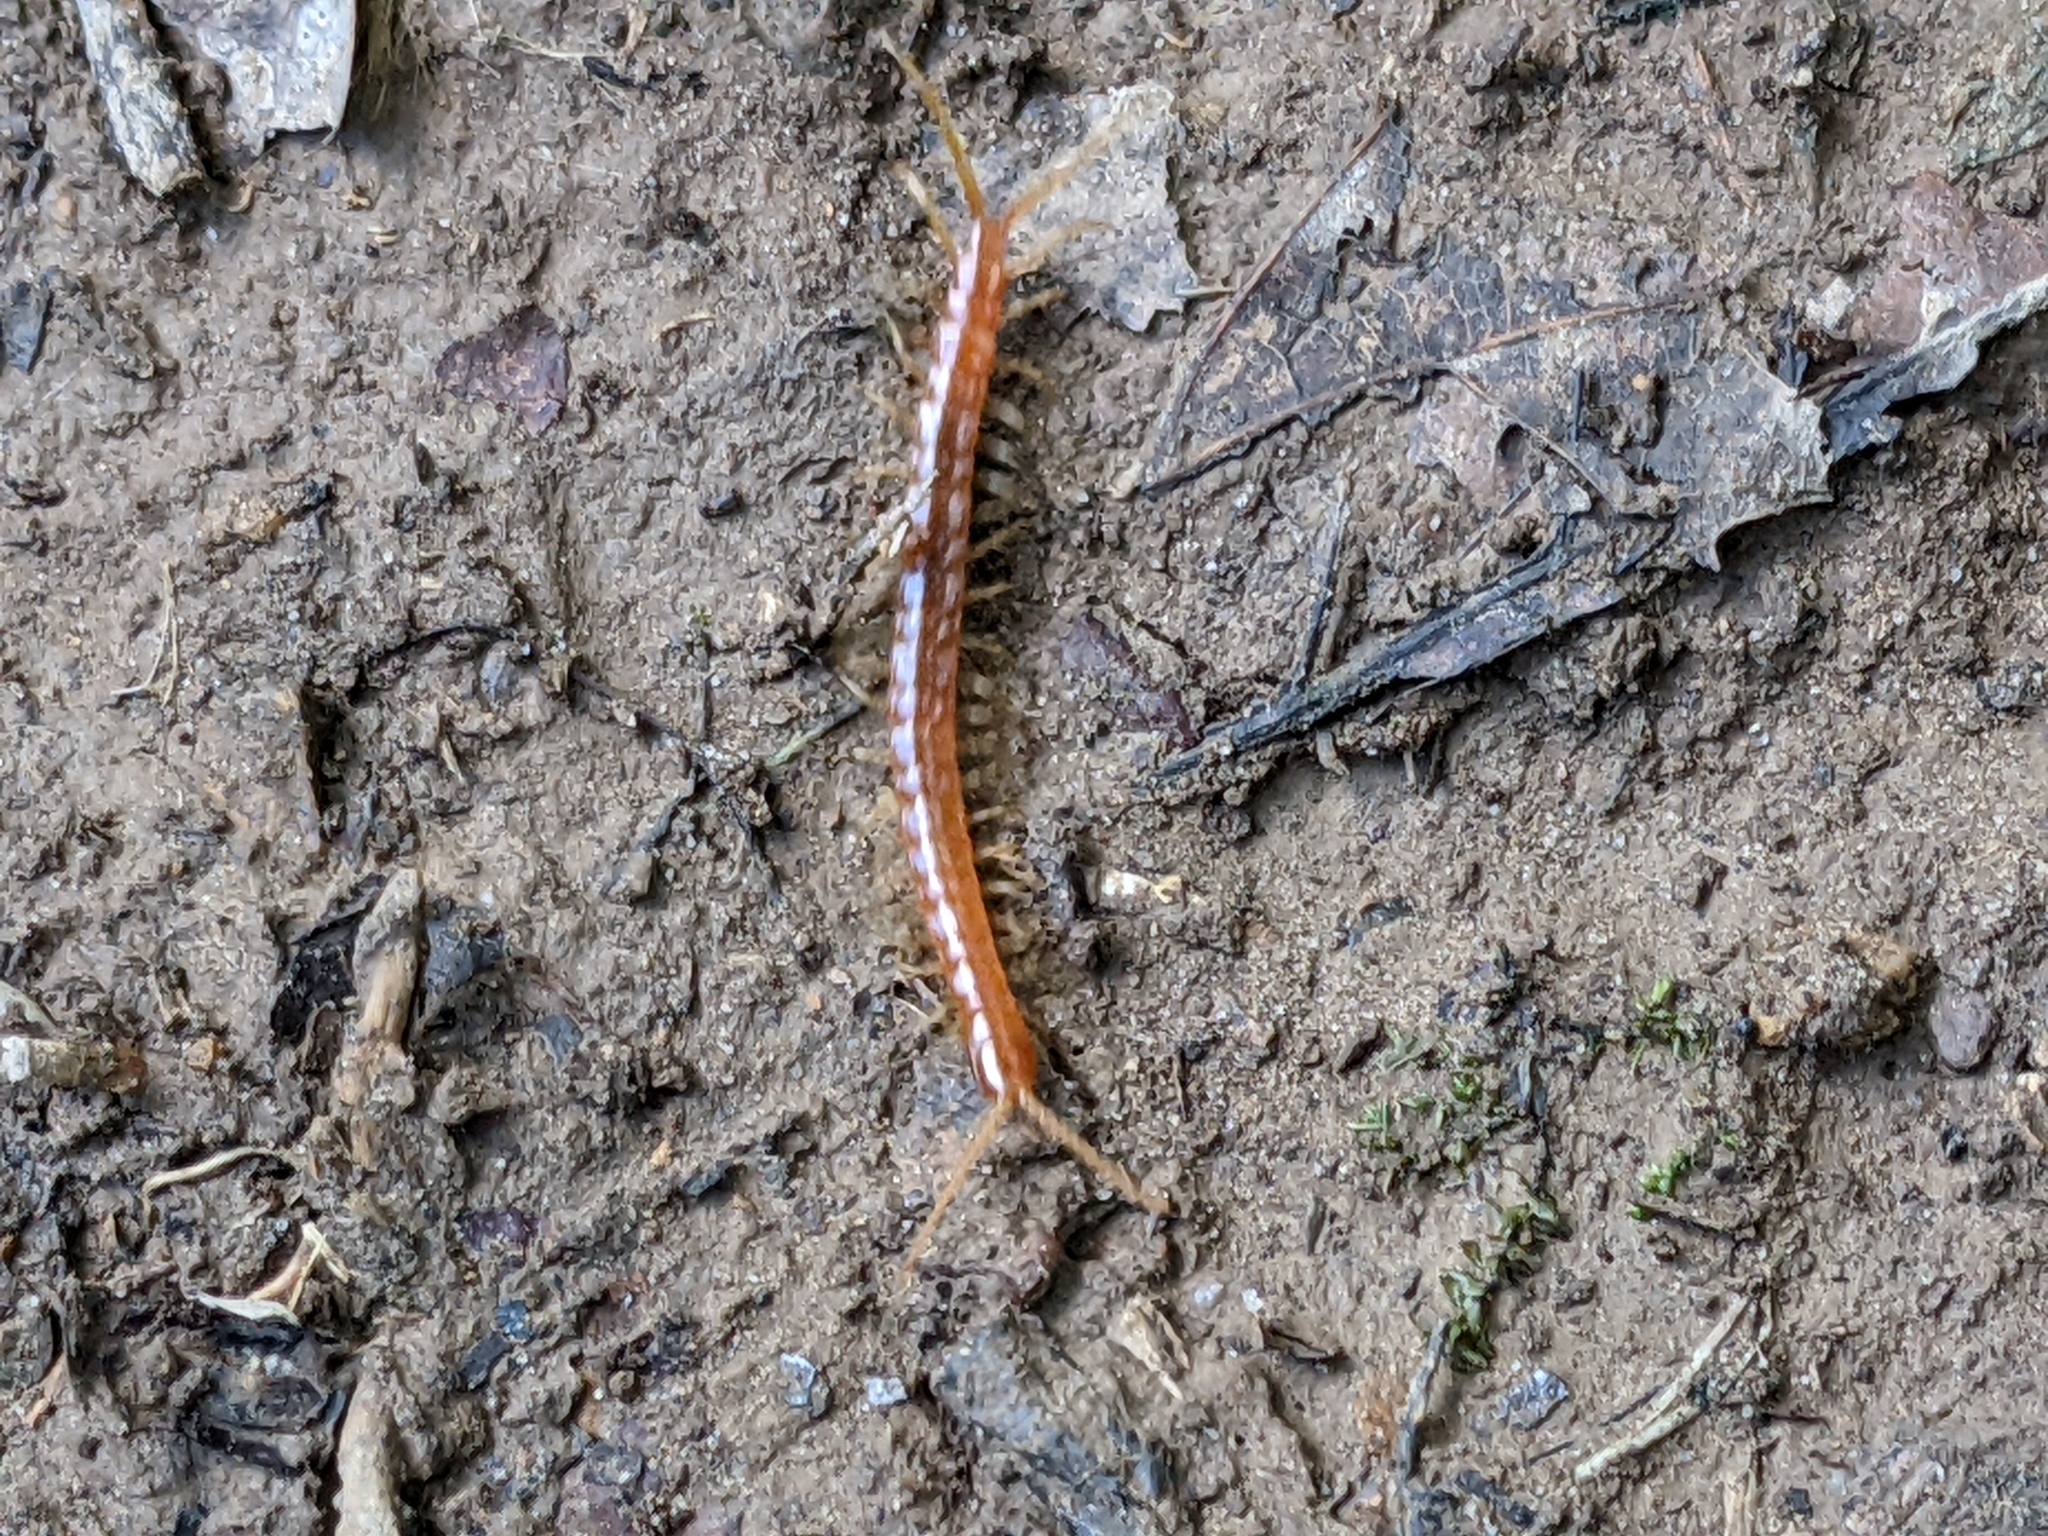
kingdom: Animalia
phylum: Arthropoda
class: Chilopoda
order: Scolopendromorpha
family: Scolopocryptopidae
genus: Scolopocryptops
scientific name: Scolopocryptops sexspinosus
